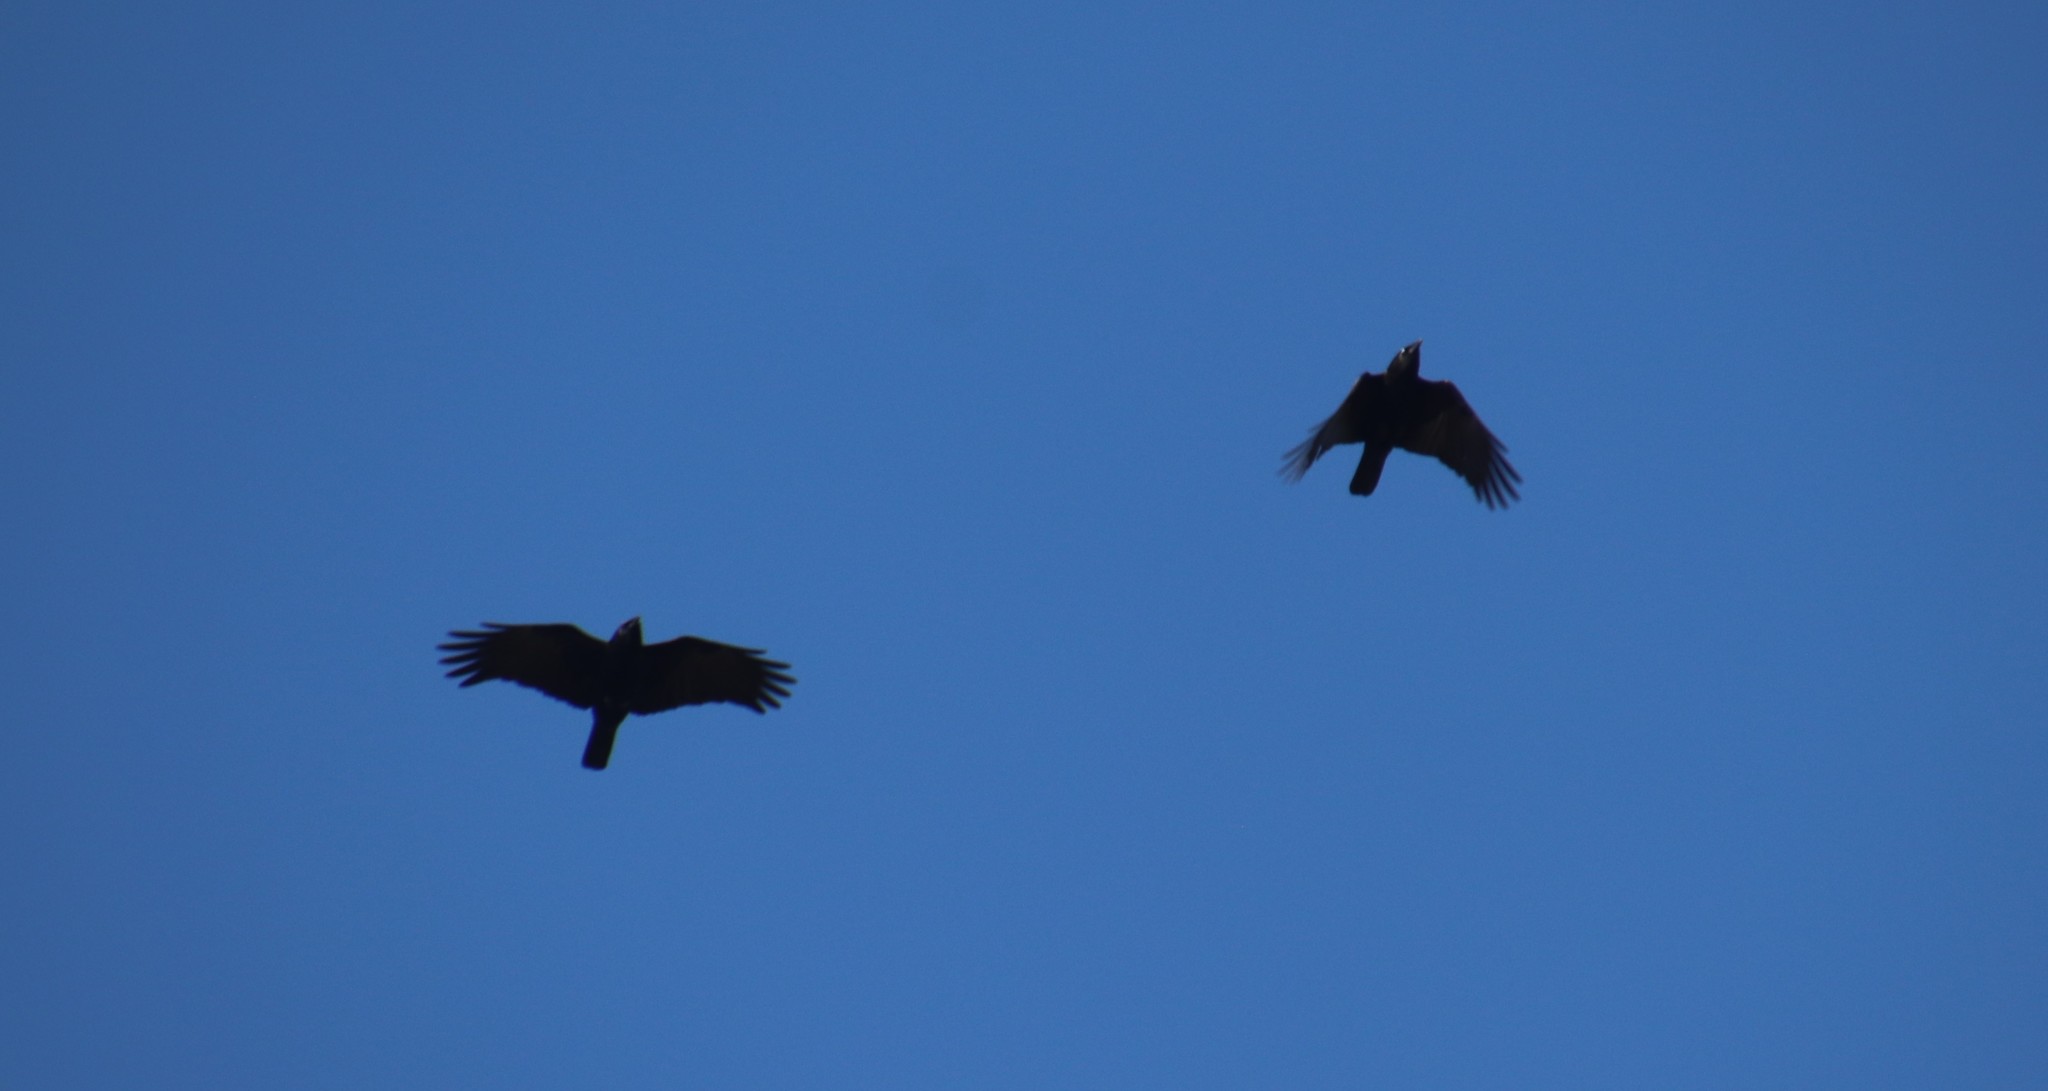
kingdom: Animalia
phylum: Chordata
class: Aves
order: Passeriformes
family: Corvidae
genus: Corvus
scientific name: Corvus brachyrhynchos
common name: American crow
